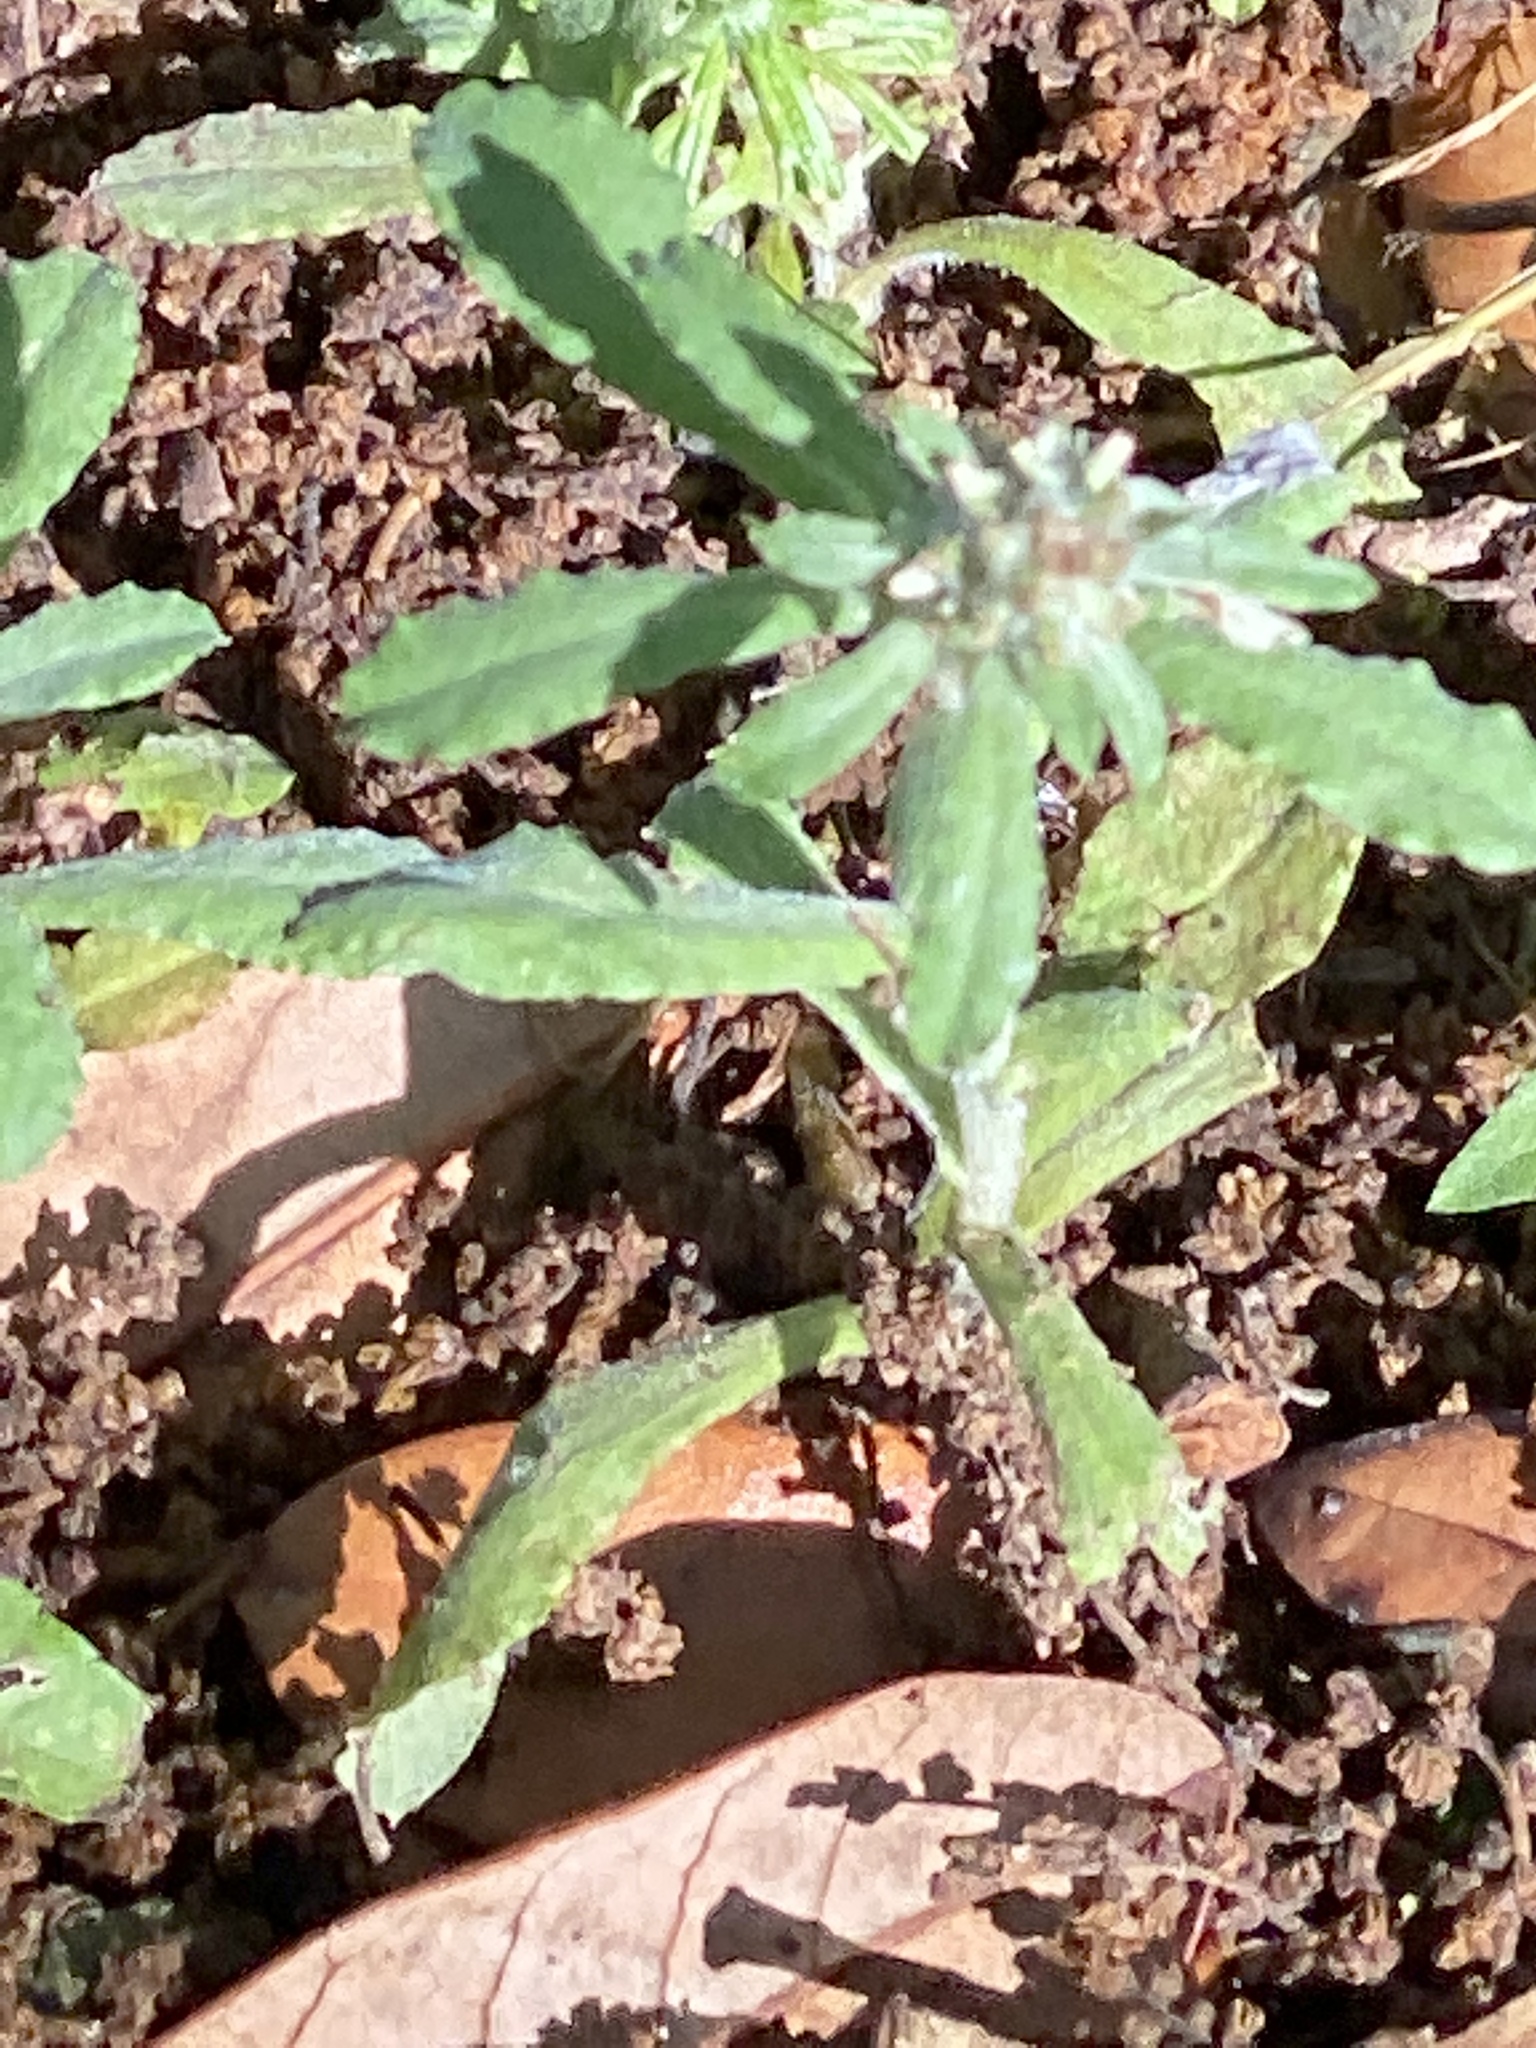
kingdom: Plantae
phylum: Tracheophyta
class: Magnoliopsida
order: Asterales
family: Asteraceae
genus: Gamochaeta
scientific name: Gamochaeta pensylvanica
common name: Pennsylvania everlasting
